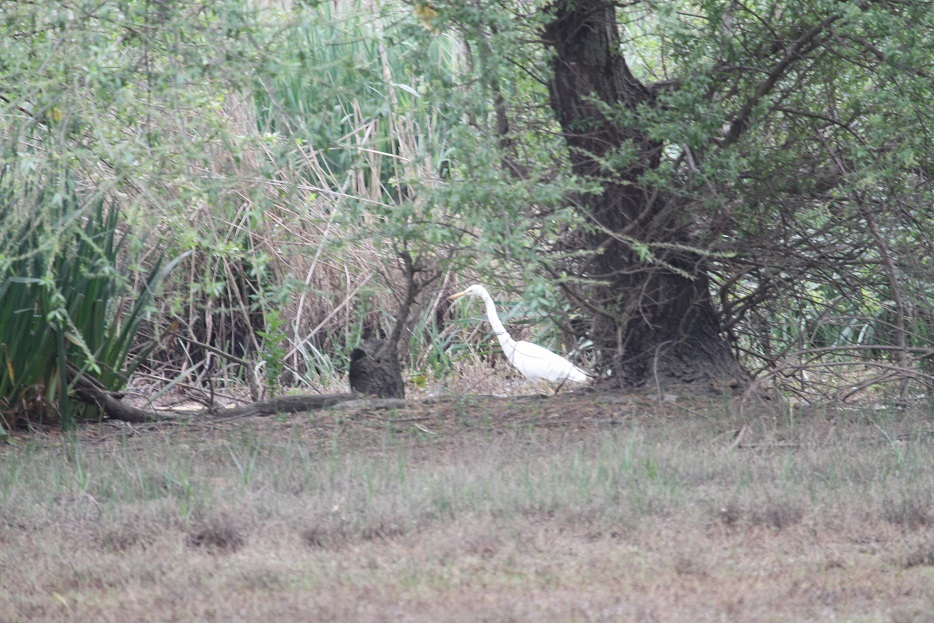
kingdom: Animalia
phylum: Chordata
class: Aves
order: Pelecaniformes
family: Ardeidae
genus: Ardea
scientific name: Ardea alba
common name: Great egret
